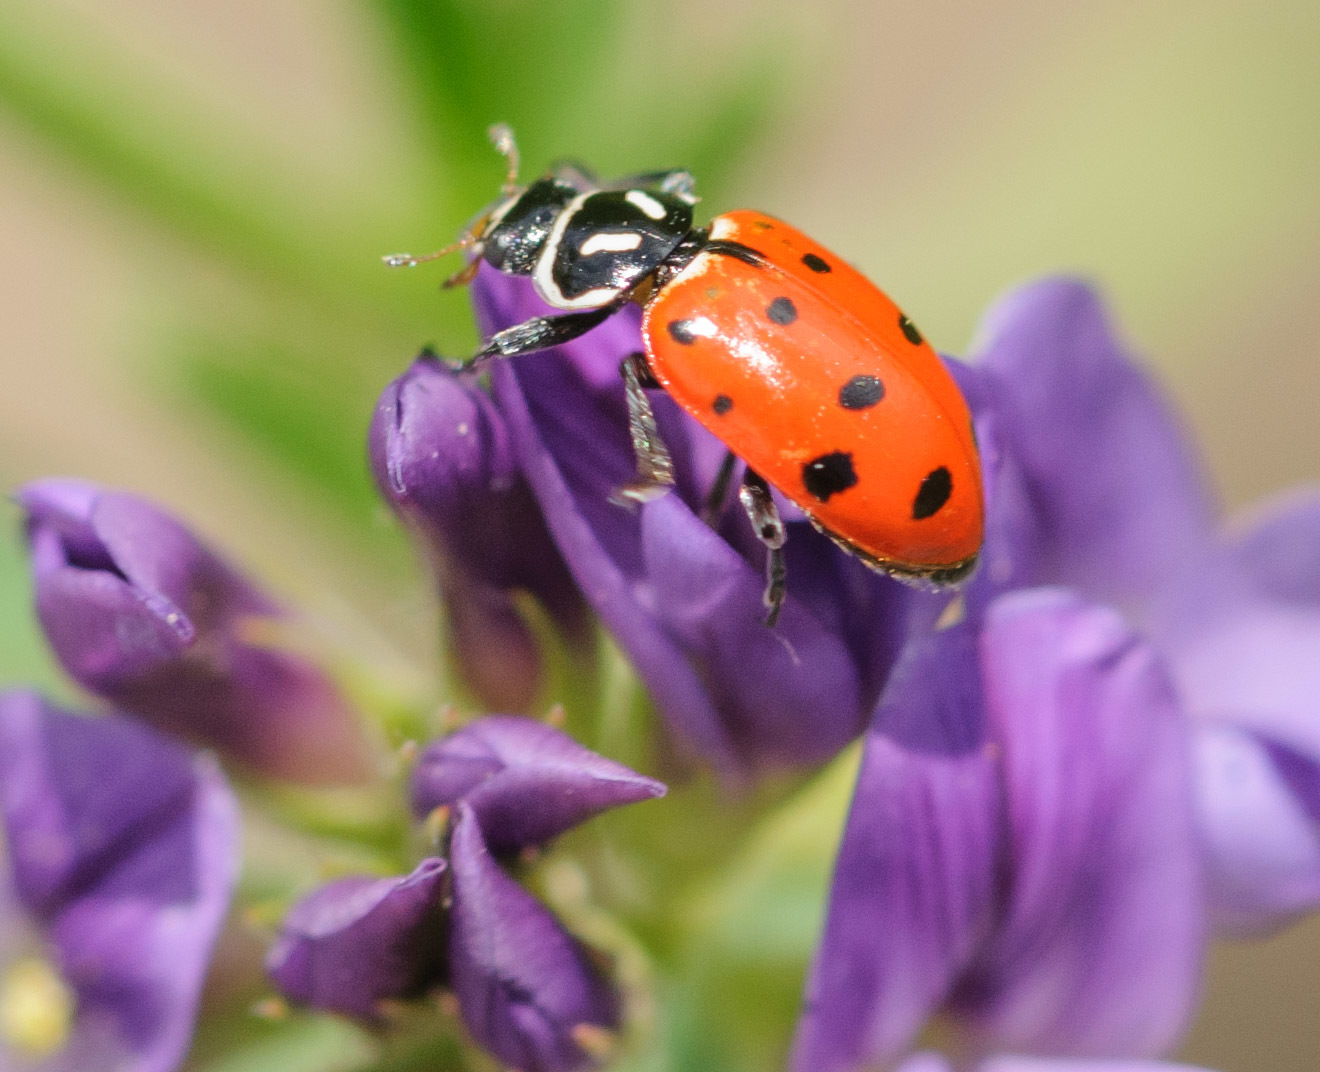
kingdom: Animalia
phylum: Arthropoda
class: Insecta
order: Coleoptera
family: Coccinellidae
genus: Hippodamia
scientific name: Hippodamia convergens
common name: Convergent lady beetle
